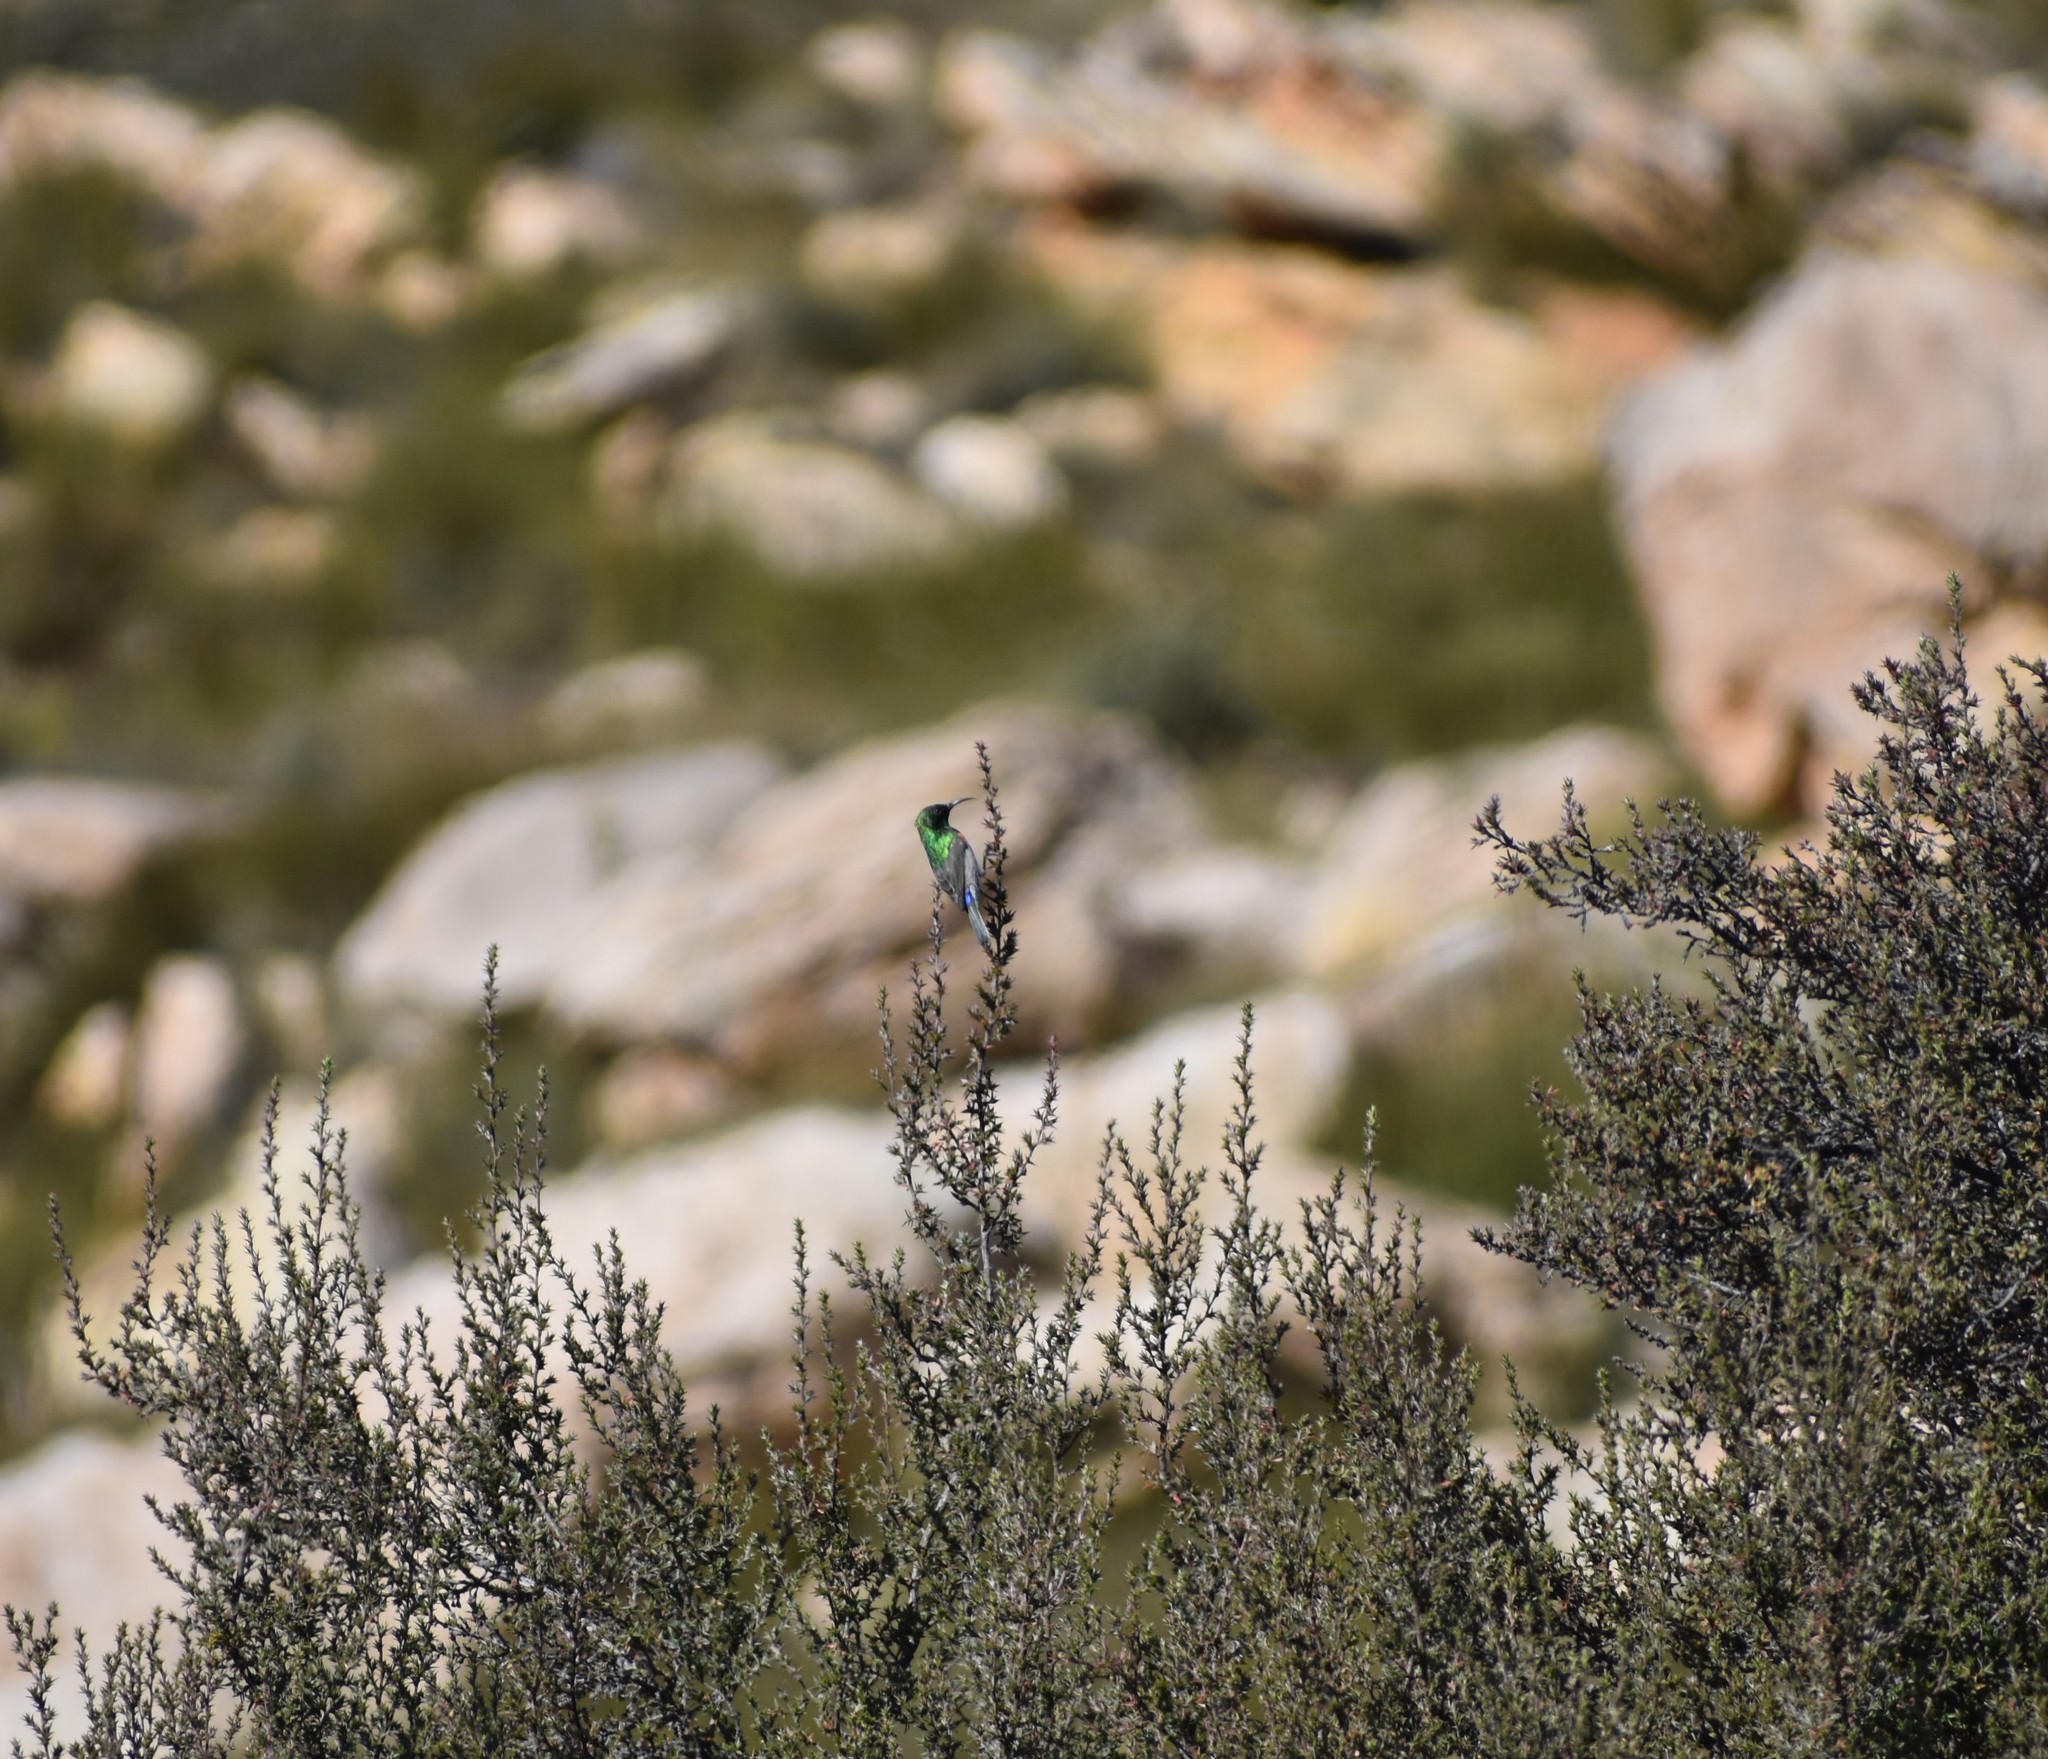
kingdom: Animalia
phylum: Chordata
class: Aves
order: Passeriformes
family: Nectariniidae
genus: Cinnyris
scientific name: Cinnyris chalybeus
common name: Southern double-collared sunbird
